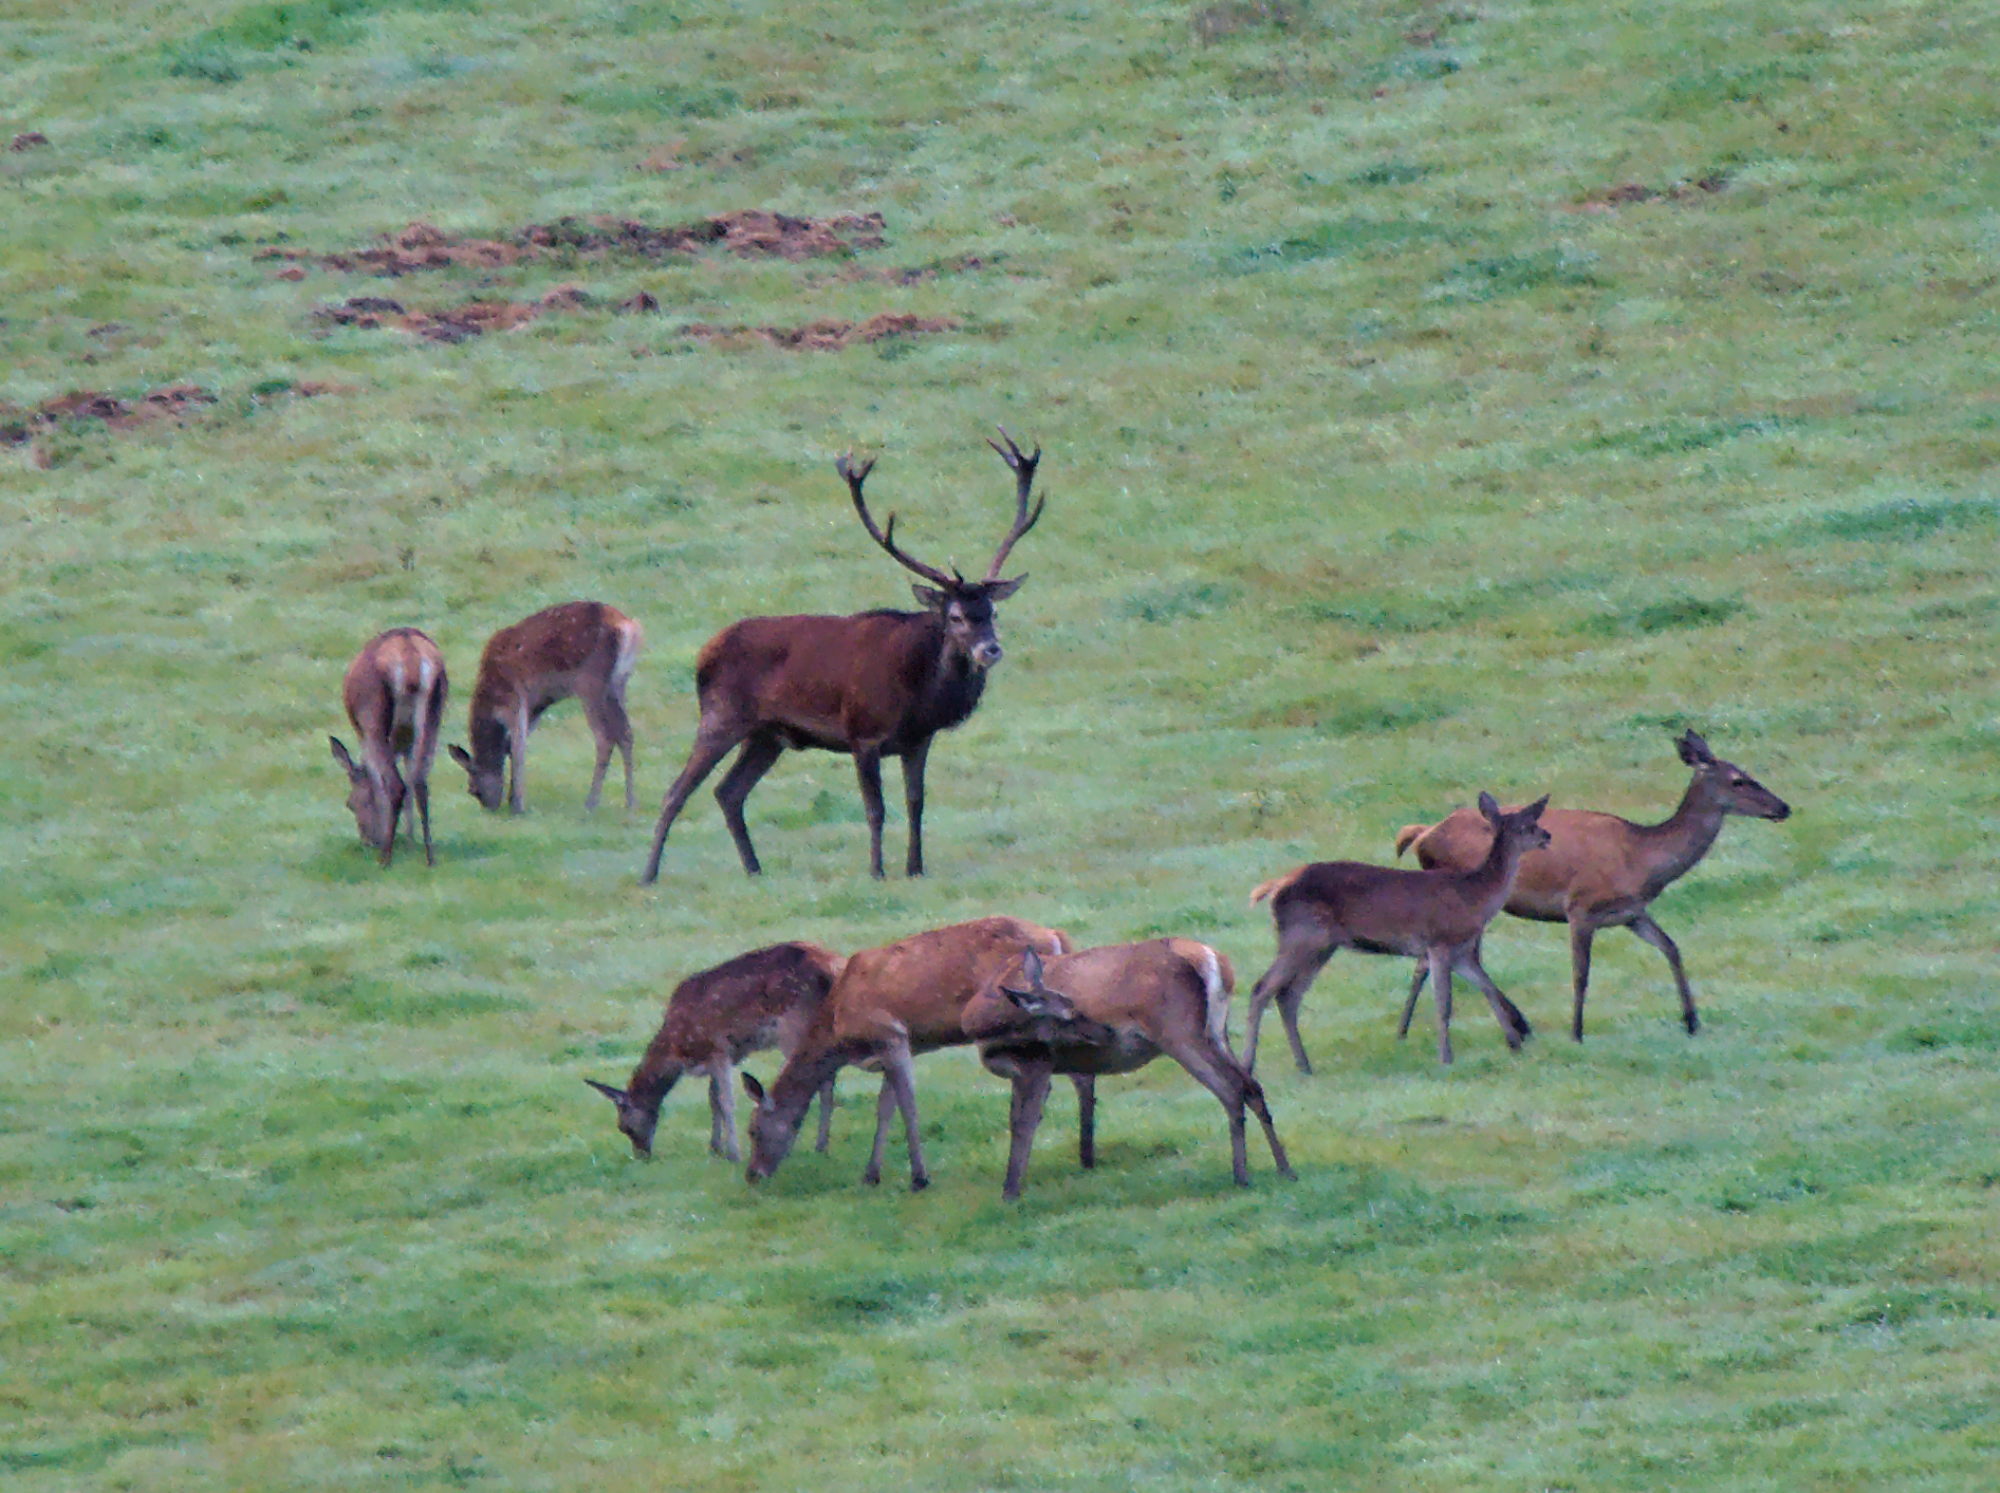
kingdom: Animalia
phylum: Chordata
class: Mammalia
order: Artiodactyla
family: Cervidae
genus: Cervus
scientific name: Cervus elaphus
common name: Red deer
